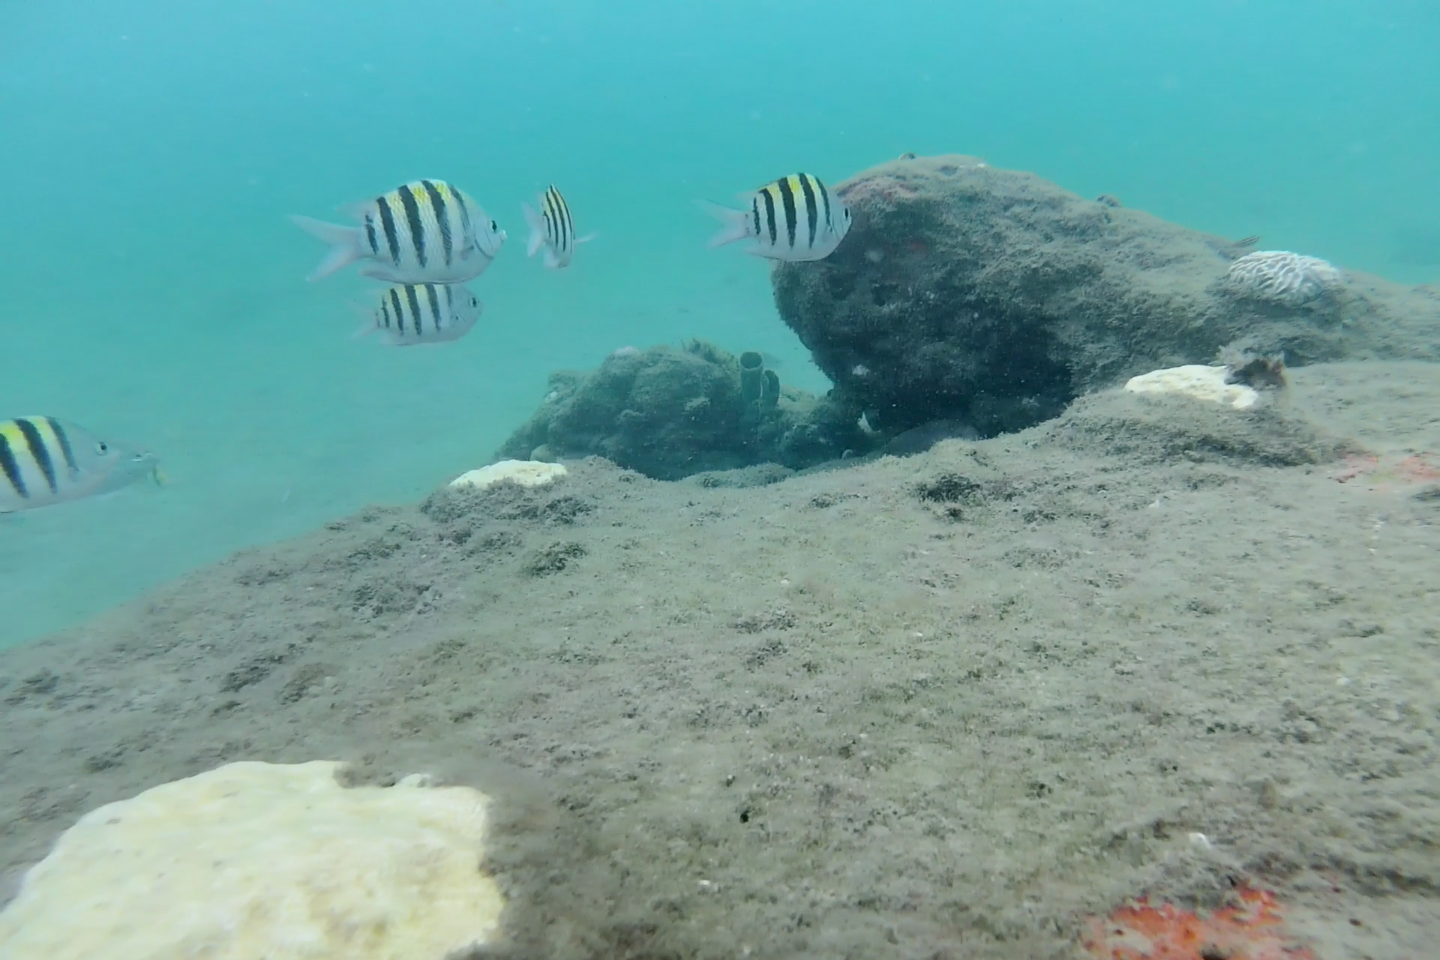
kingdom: Animalia
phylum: Chordata
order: Perciformes
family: Pomacentridae
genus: Abudefduf
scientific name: Abudefduf saxatilis
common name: Sergeant major
